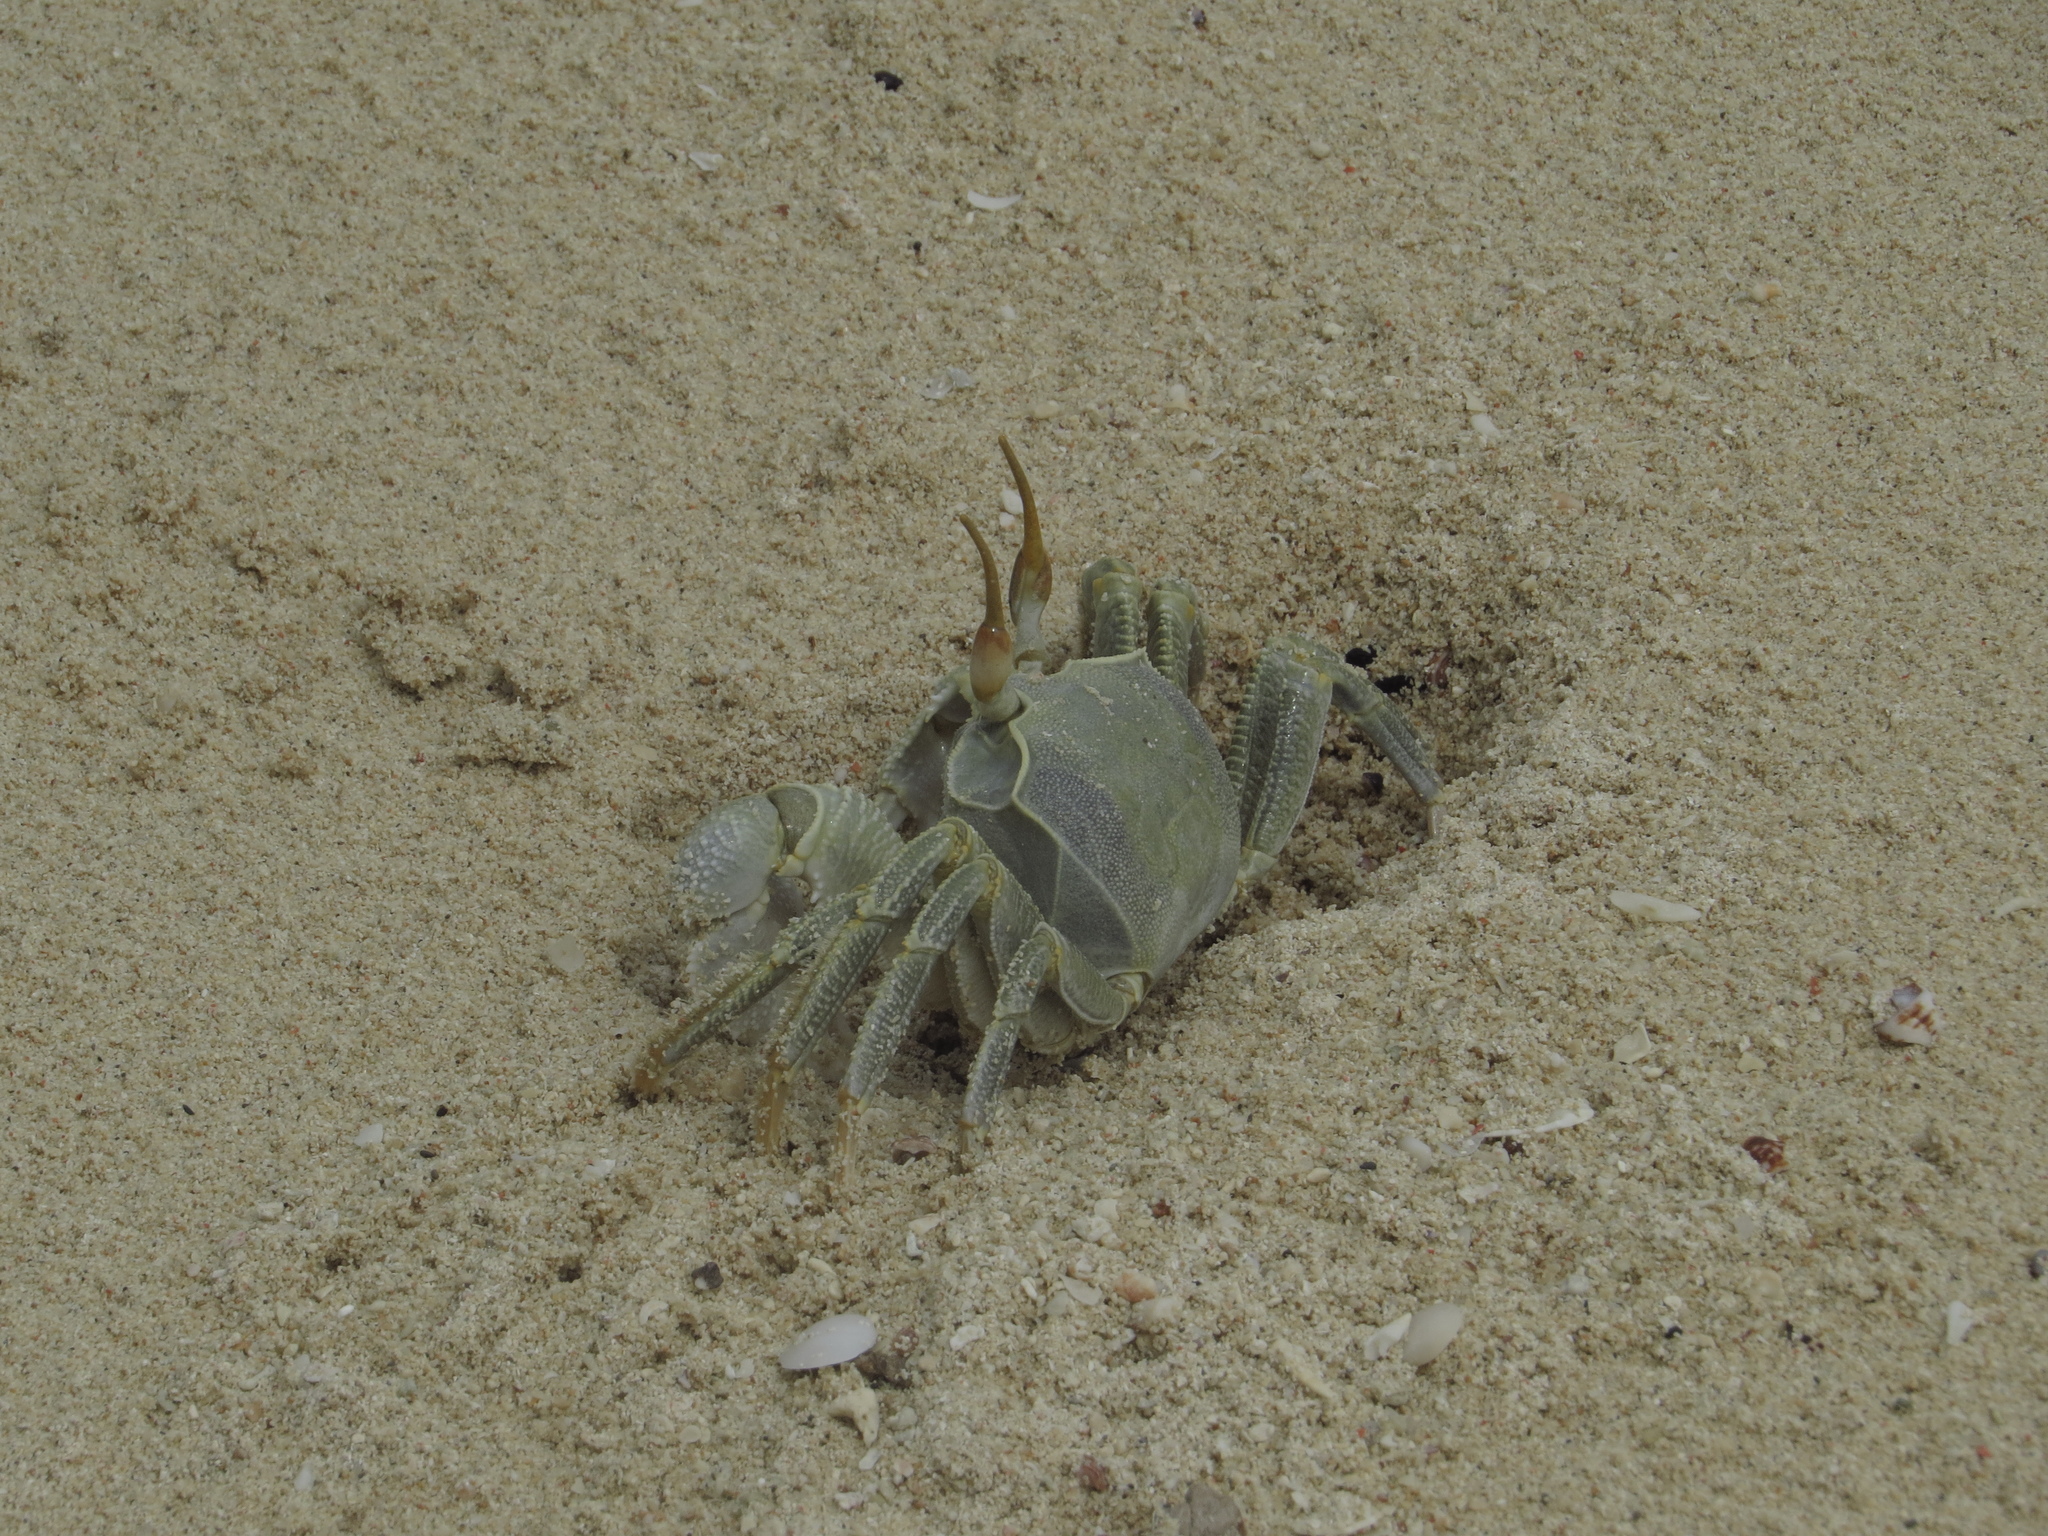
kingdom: Animalia
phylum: Arthropoda
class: Malacostraca
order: Decapoda
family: Ocypodidae
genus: Ocypode
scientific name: Ocypode ceratophthalmus
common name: Indo-pacific ghost crab
